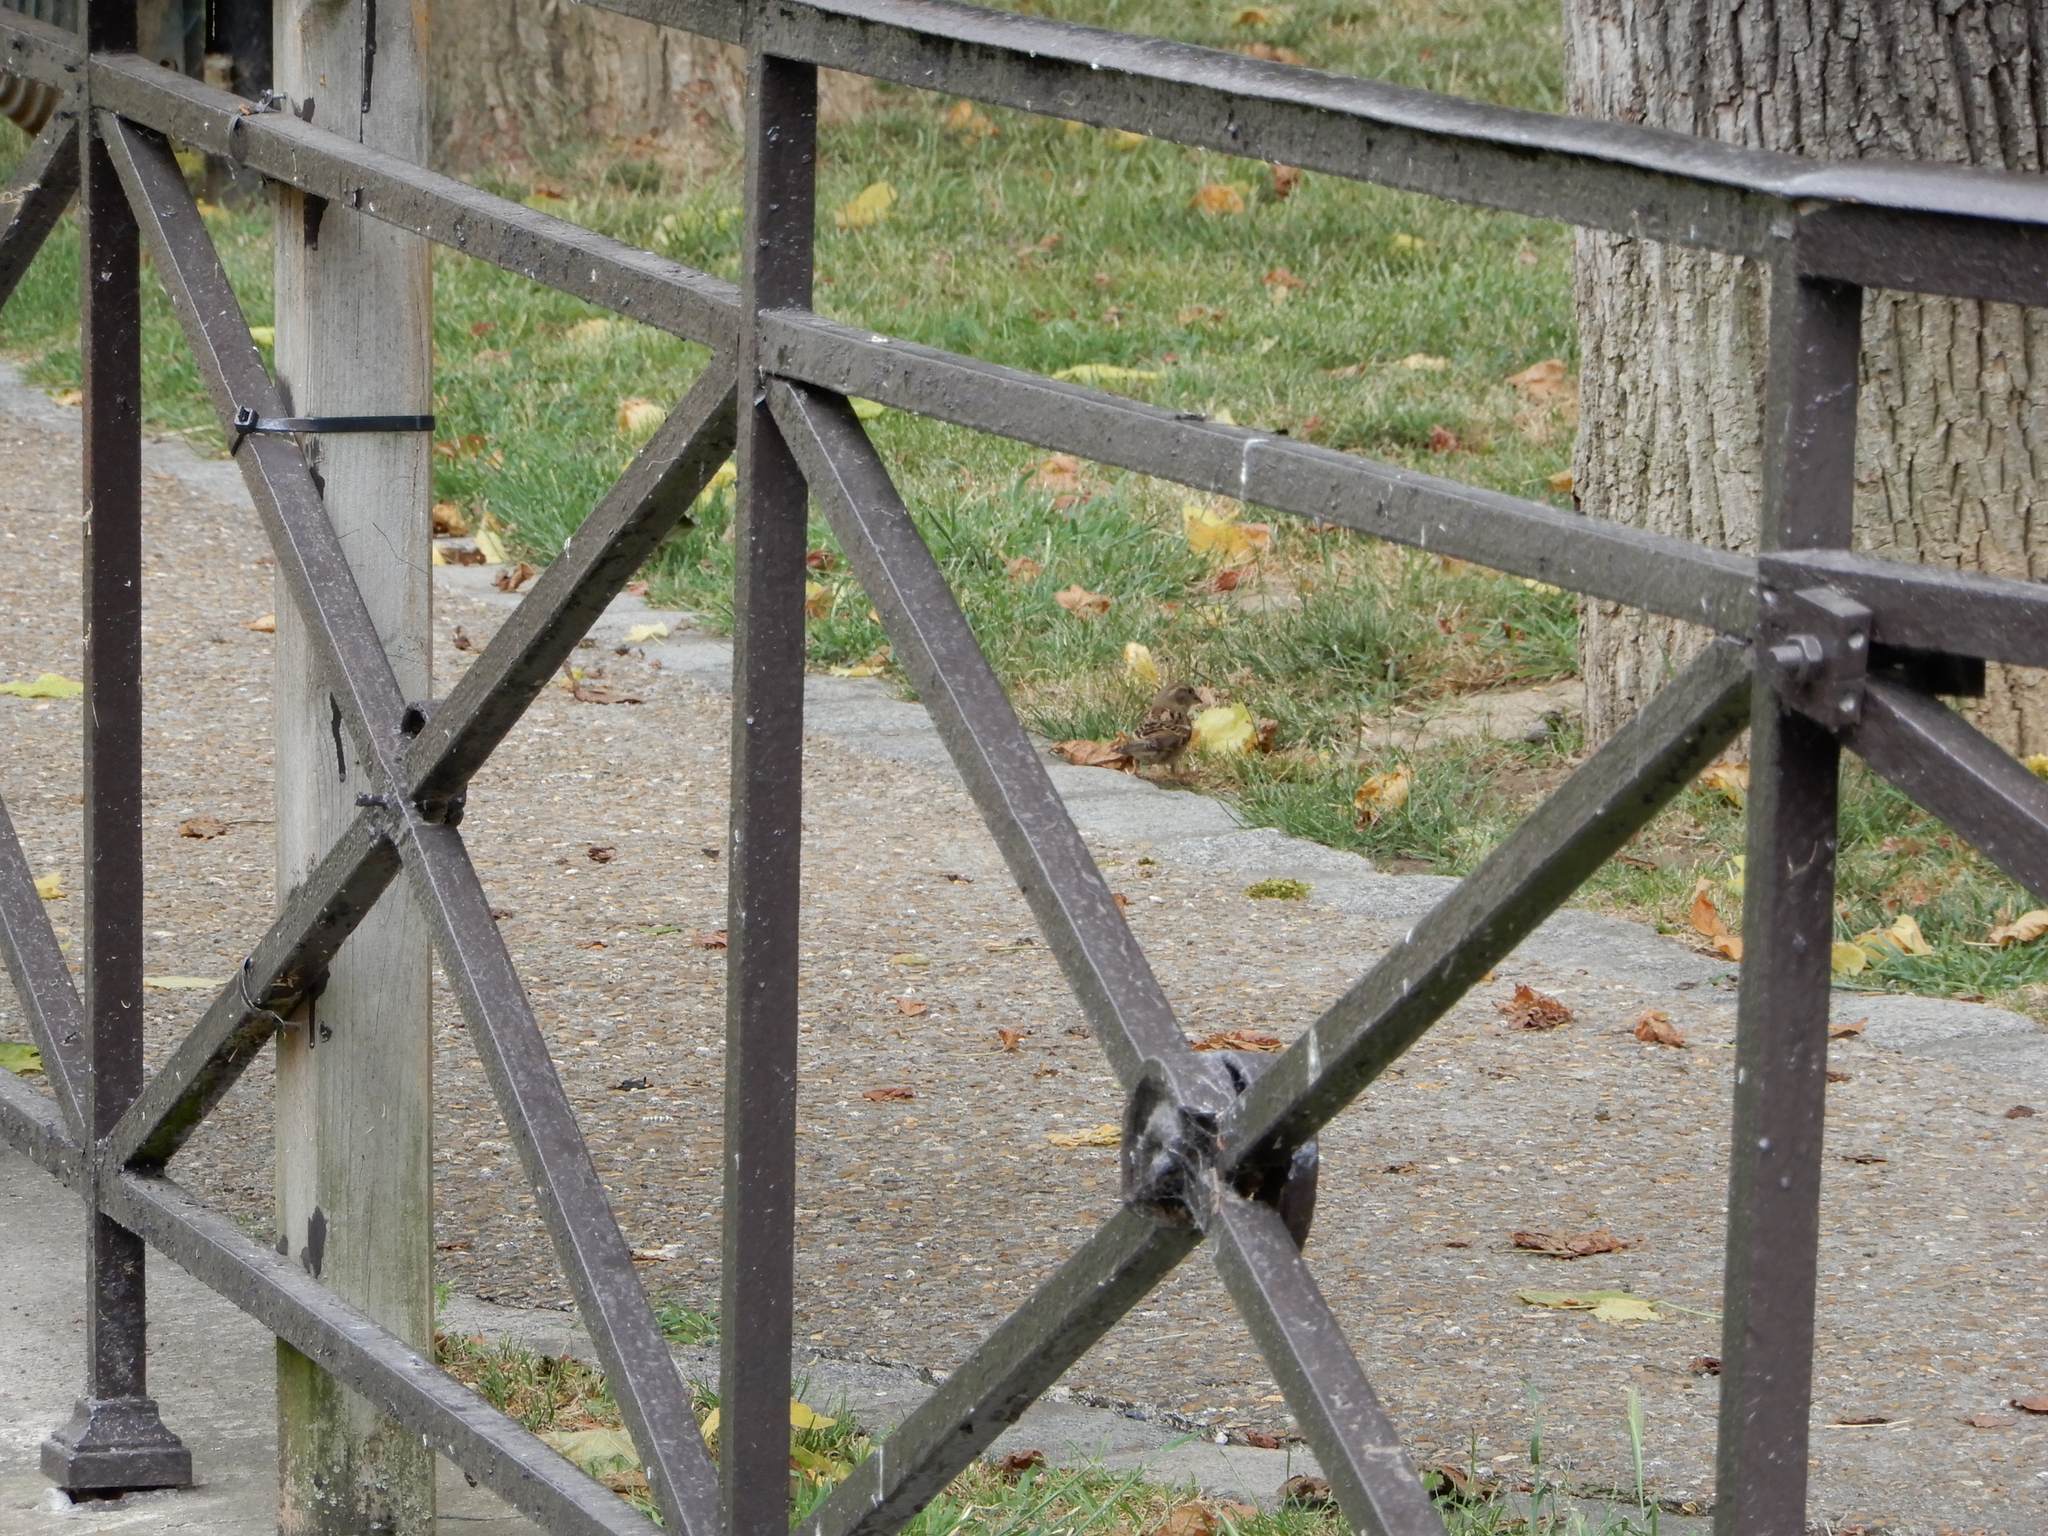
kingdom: Animalia
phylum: Chordata
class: Aves
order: Passeriformes
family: Passeridae
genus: Passer
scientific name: Passer domesticus
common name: House sparrow
